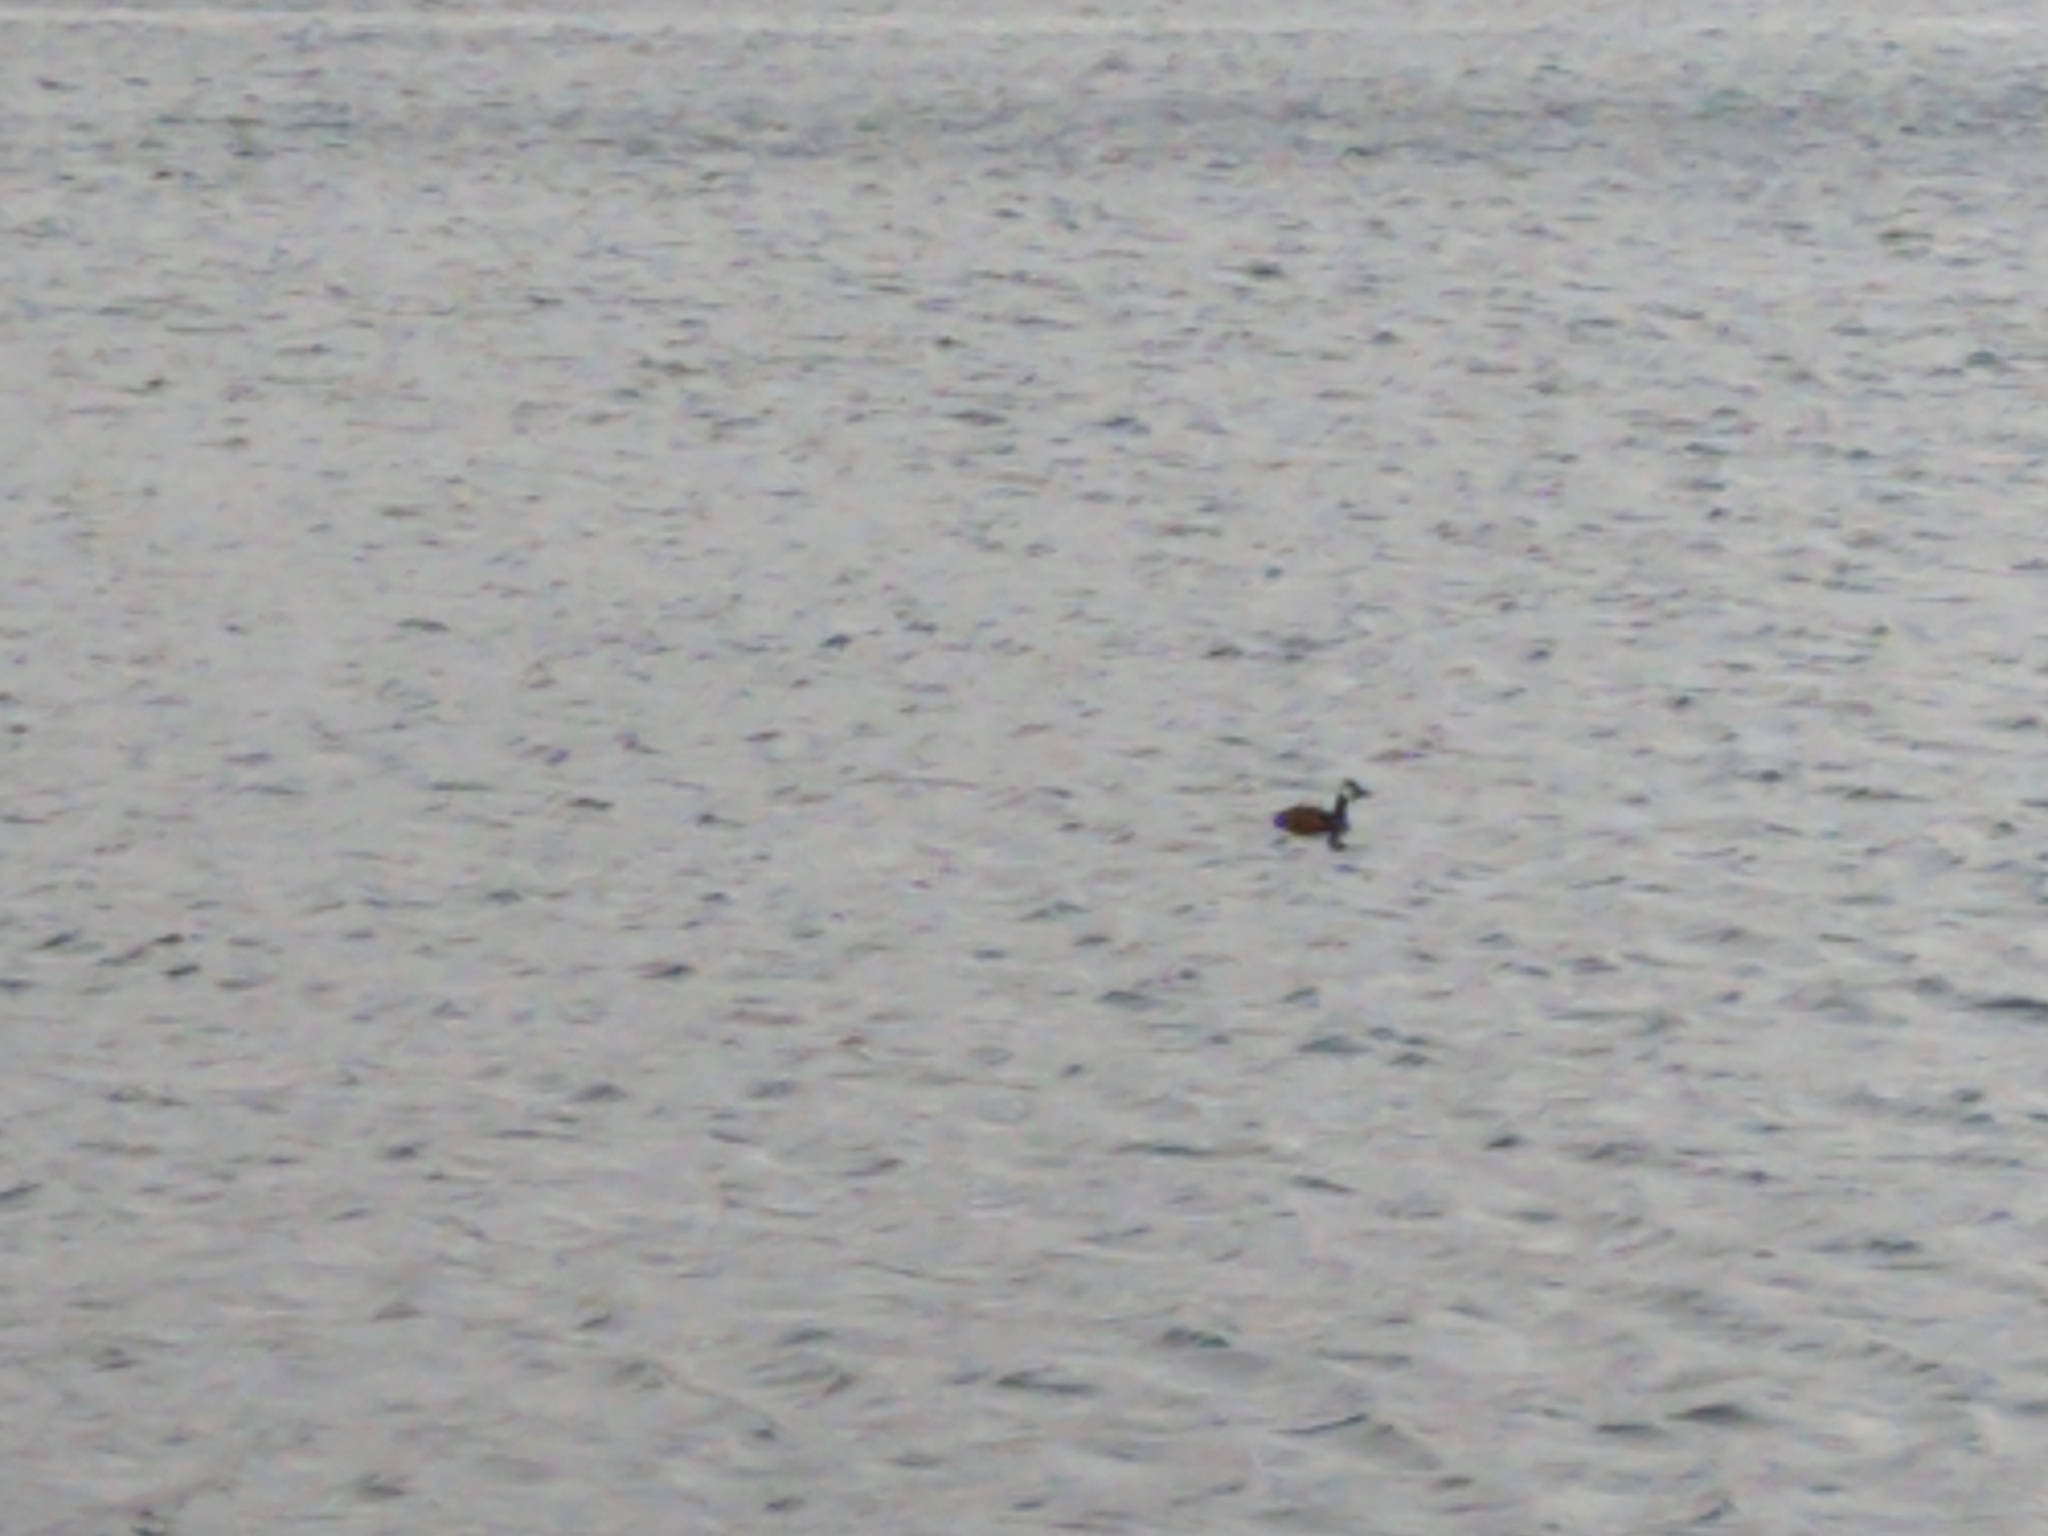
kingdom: Animalia
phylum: Chordata
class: Aves
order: Podicipediformes
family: Podicipedidae
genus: Rollandia
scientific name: Rollandia rolland
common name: White-tufted grebe
